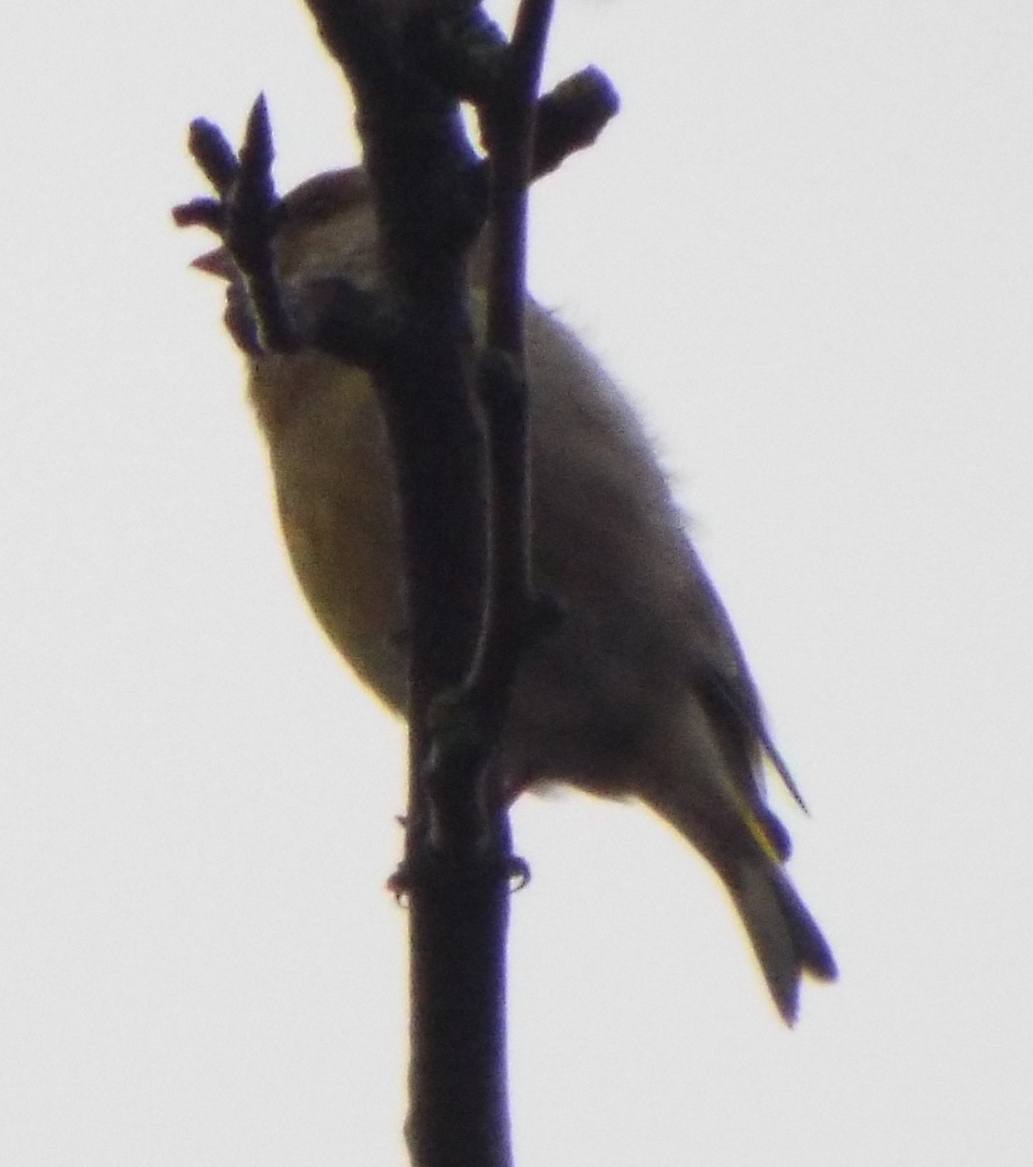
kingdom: Plantae
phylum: Tracheophyta
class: Liliopsida
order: Poales
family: Poaceae
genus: Chloris
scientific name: Chloris chloris
